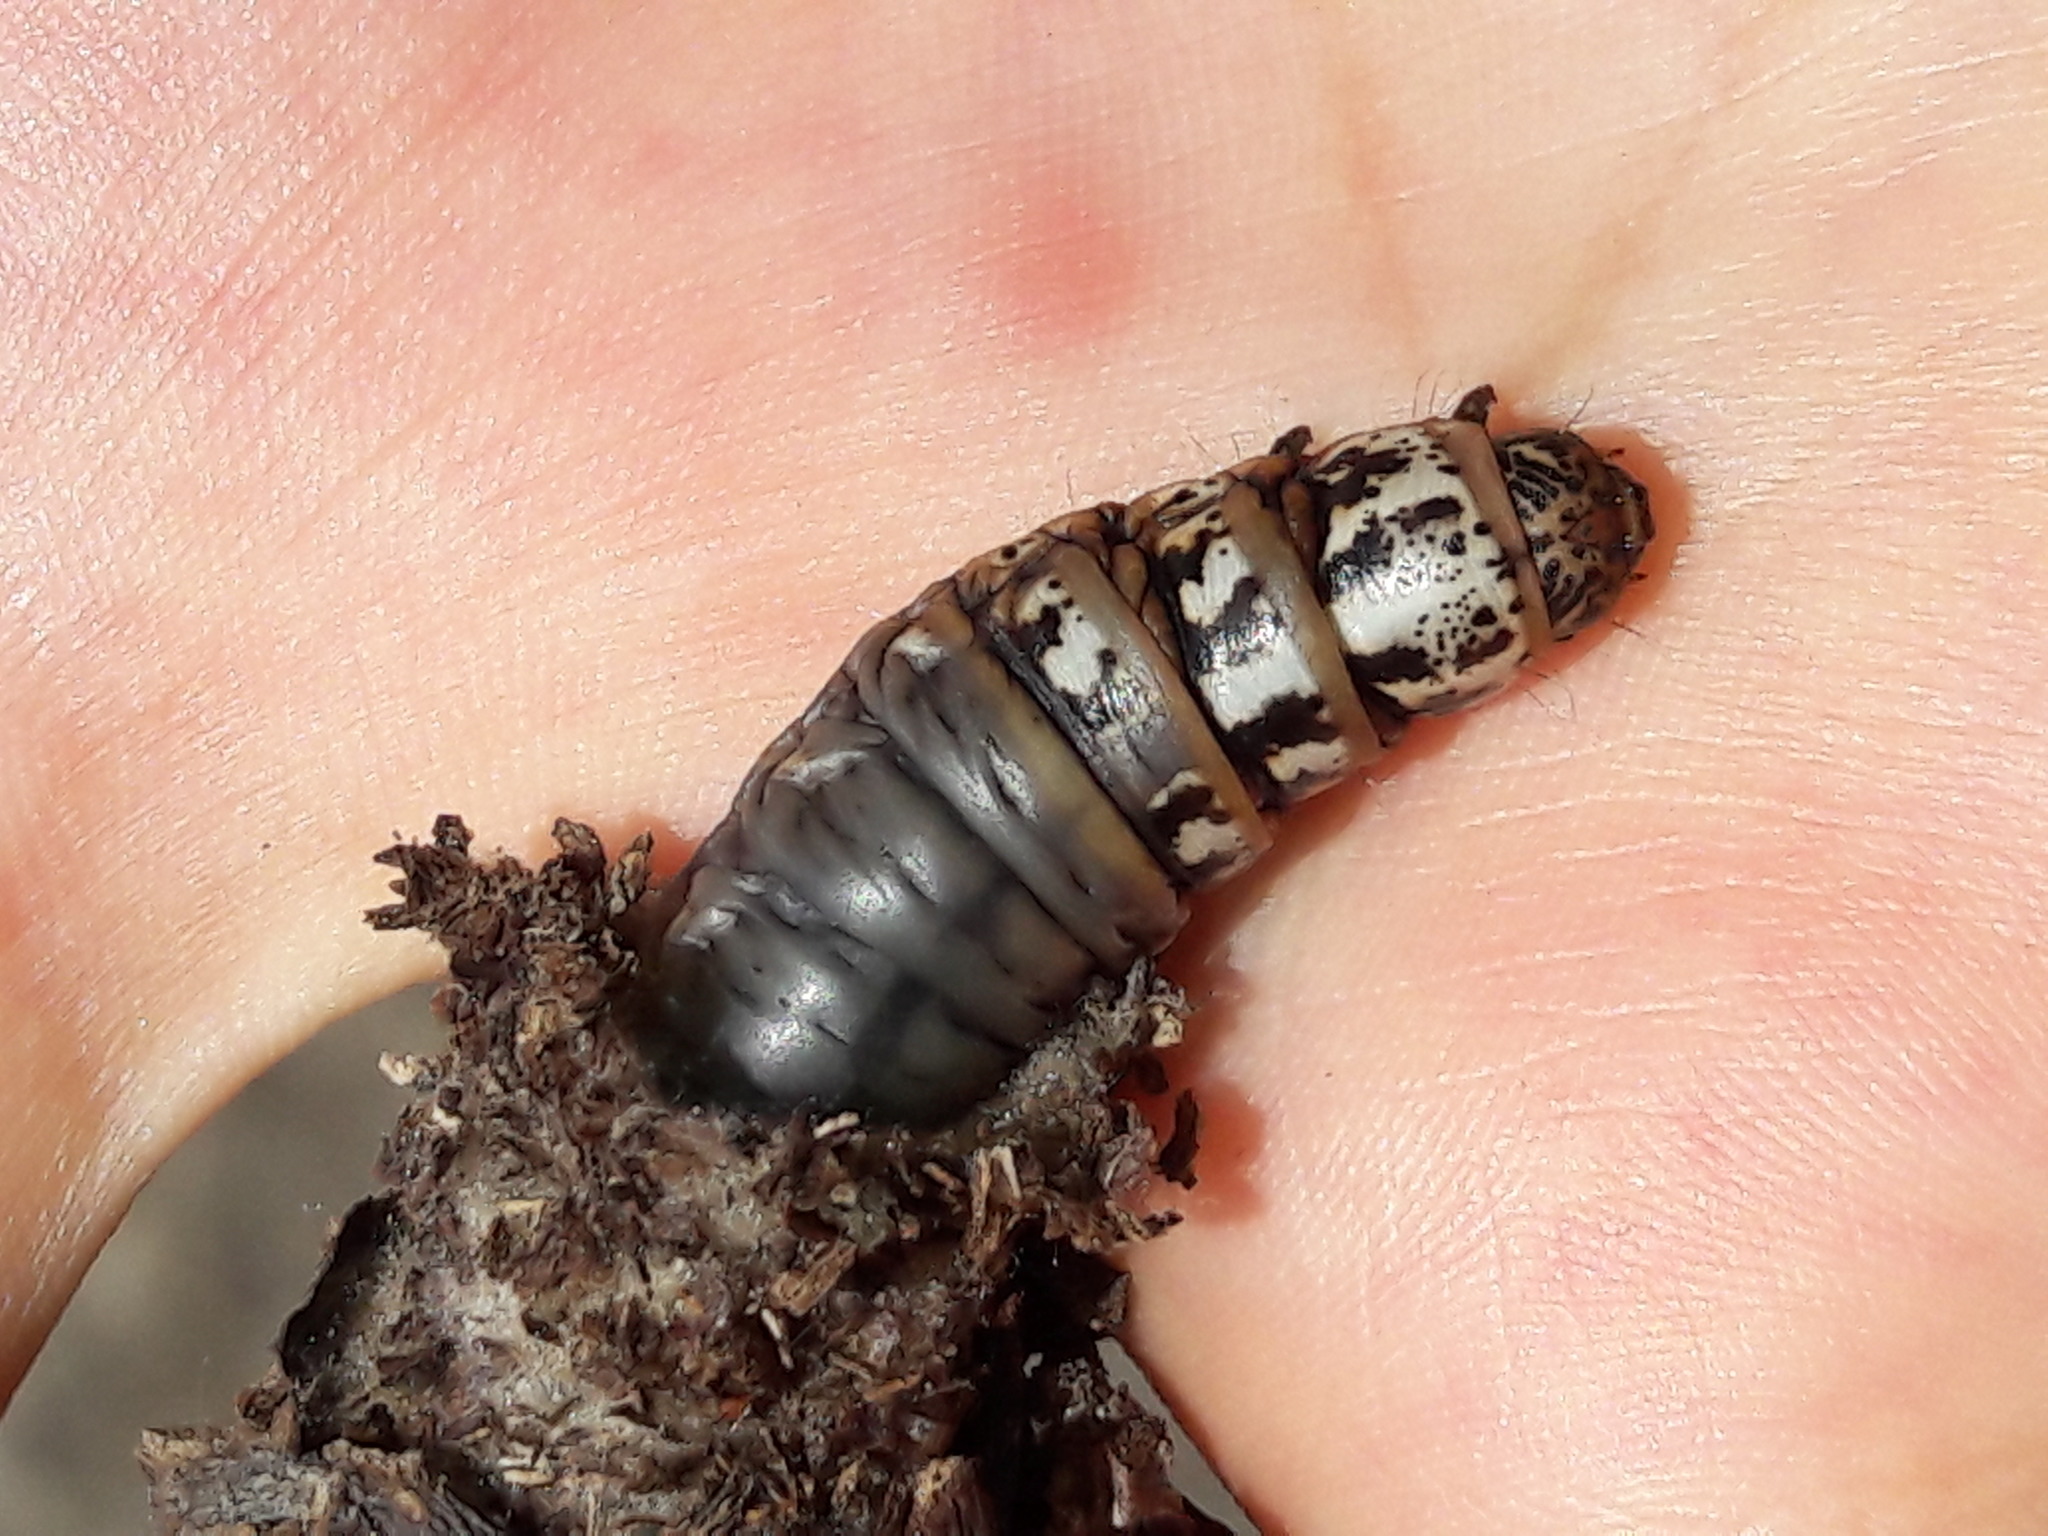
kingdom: Animalia
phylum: Arthropoda
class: Insecta
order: Lepidoptera
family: Psychidae
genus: Oiketicus
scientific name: Oiketicus kirbyi
